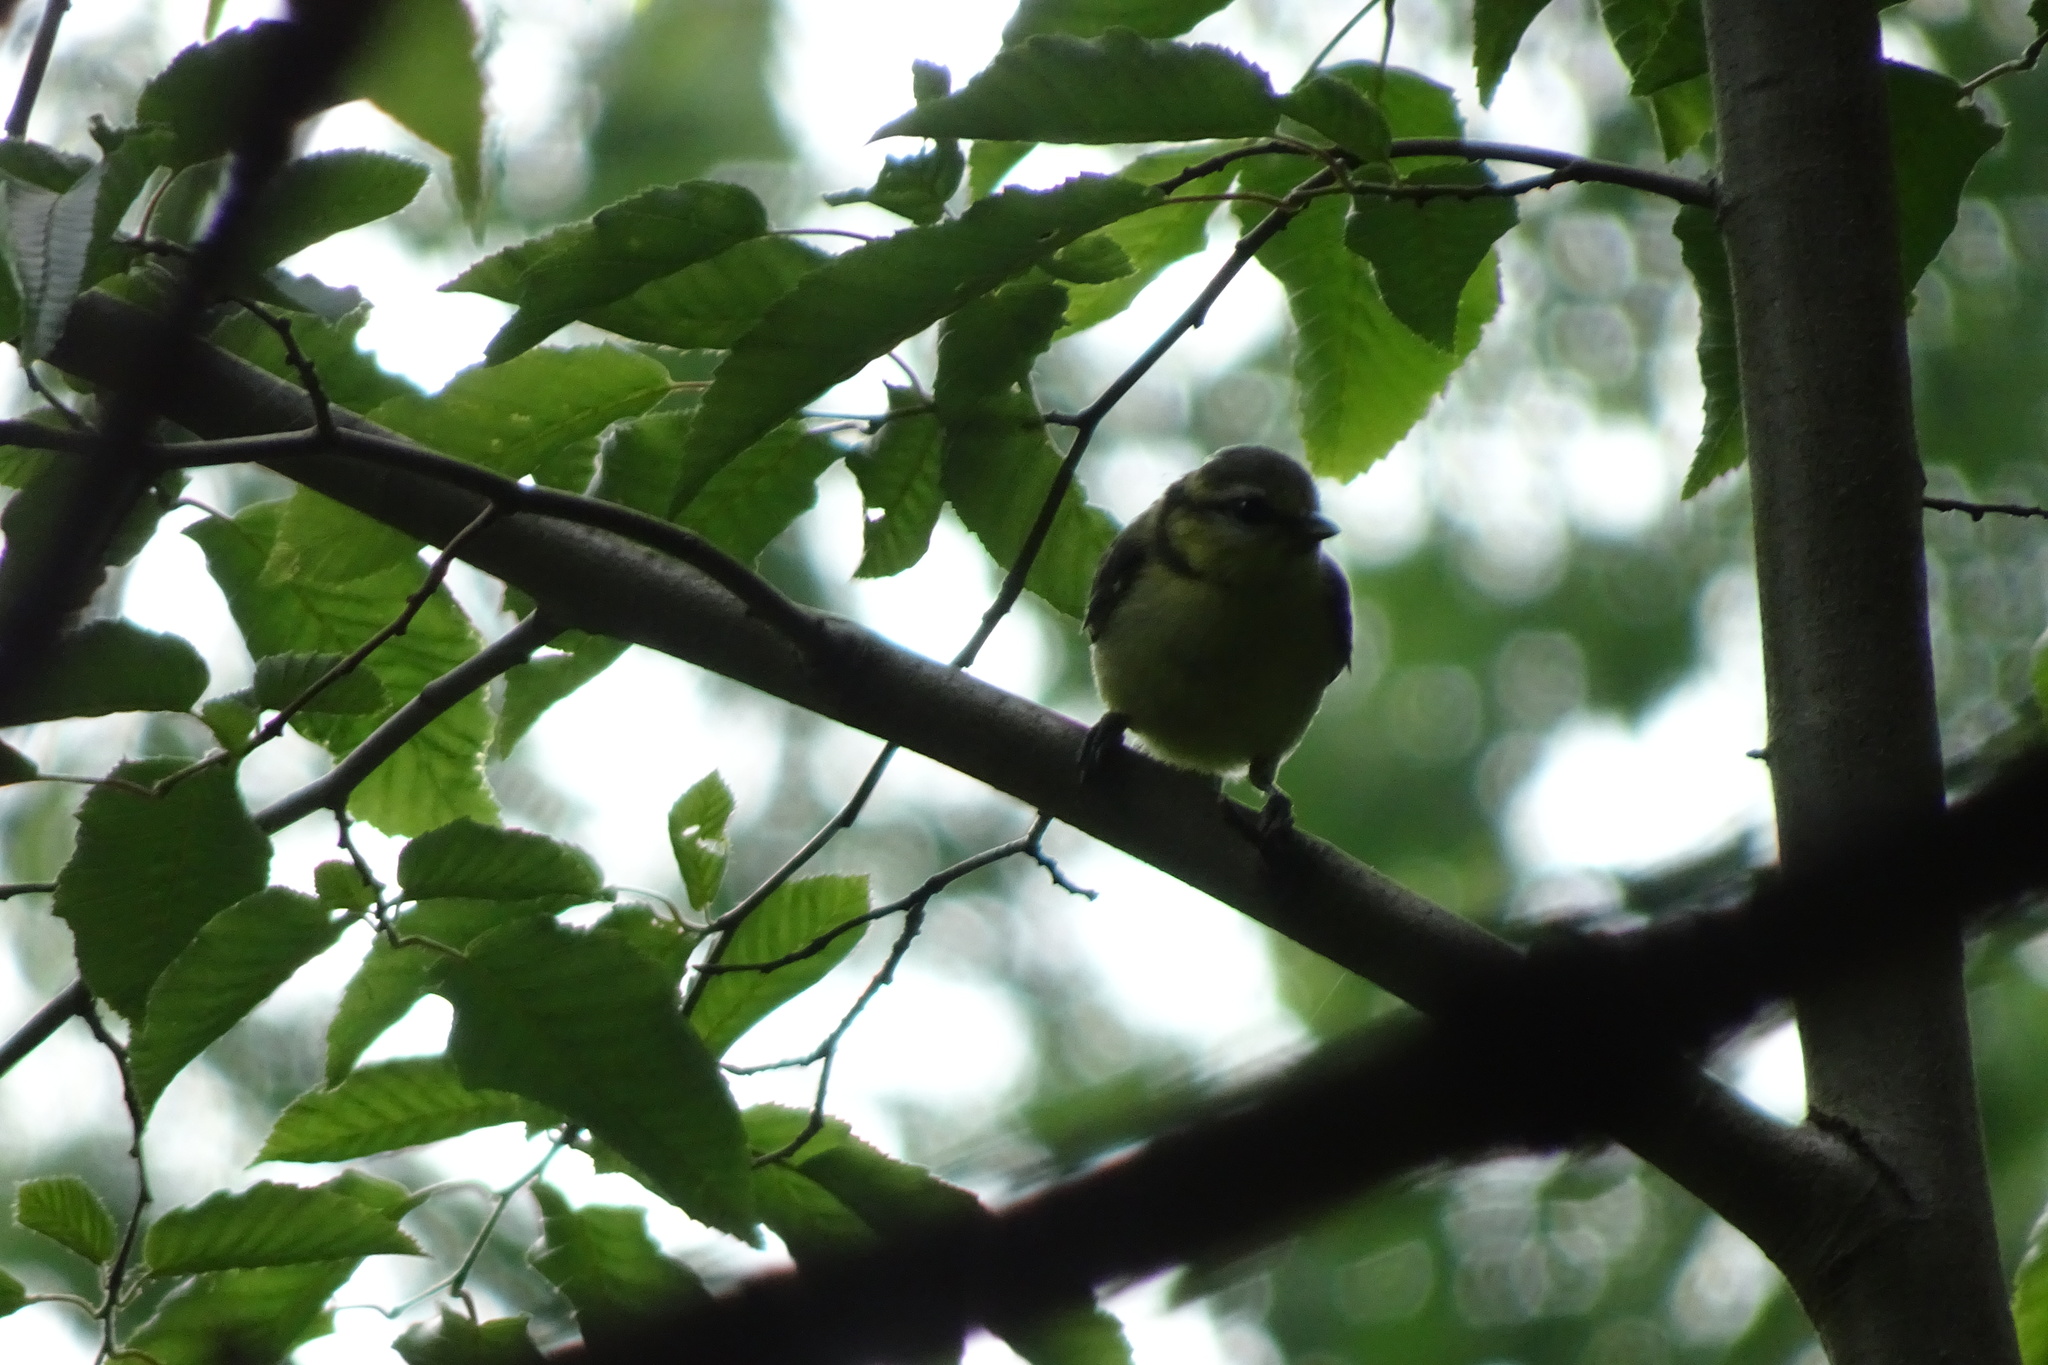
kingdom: Animalia
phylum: Chordata
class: Aves
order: Passeriformes
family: Paridae
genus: Cyanistes
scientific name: Cyanistes caeruleus
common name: Eurasian blue tit
